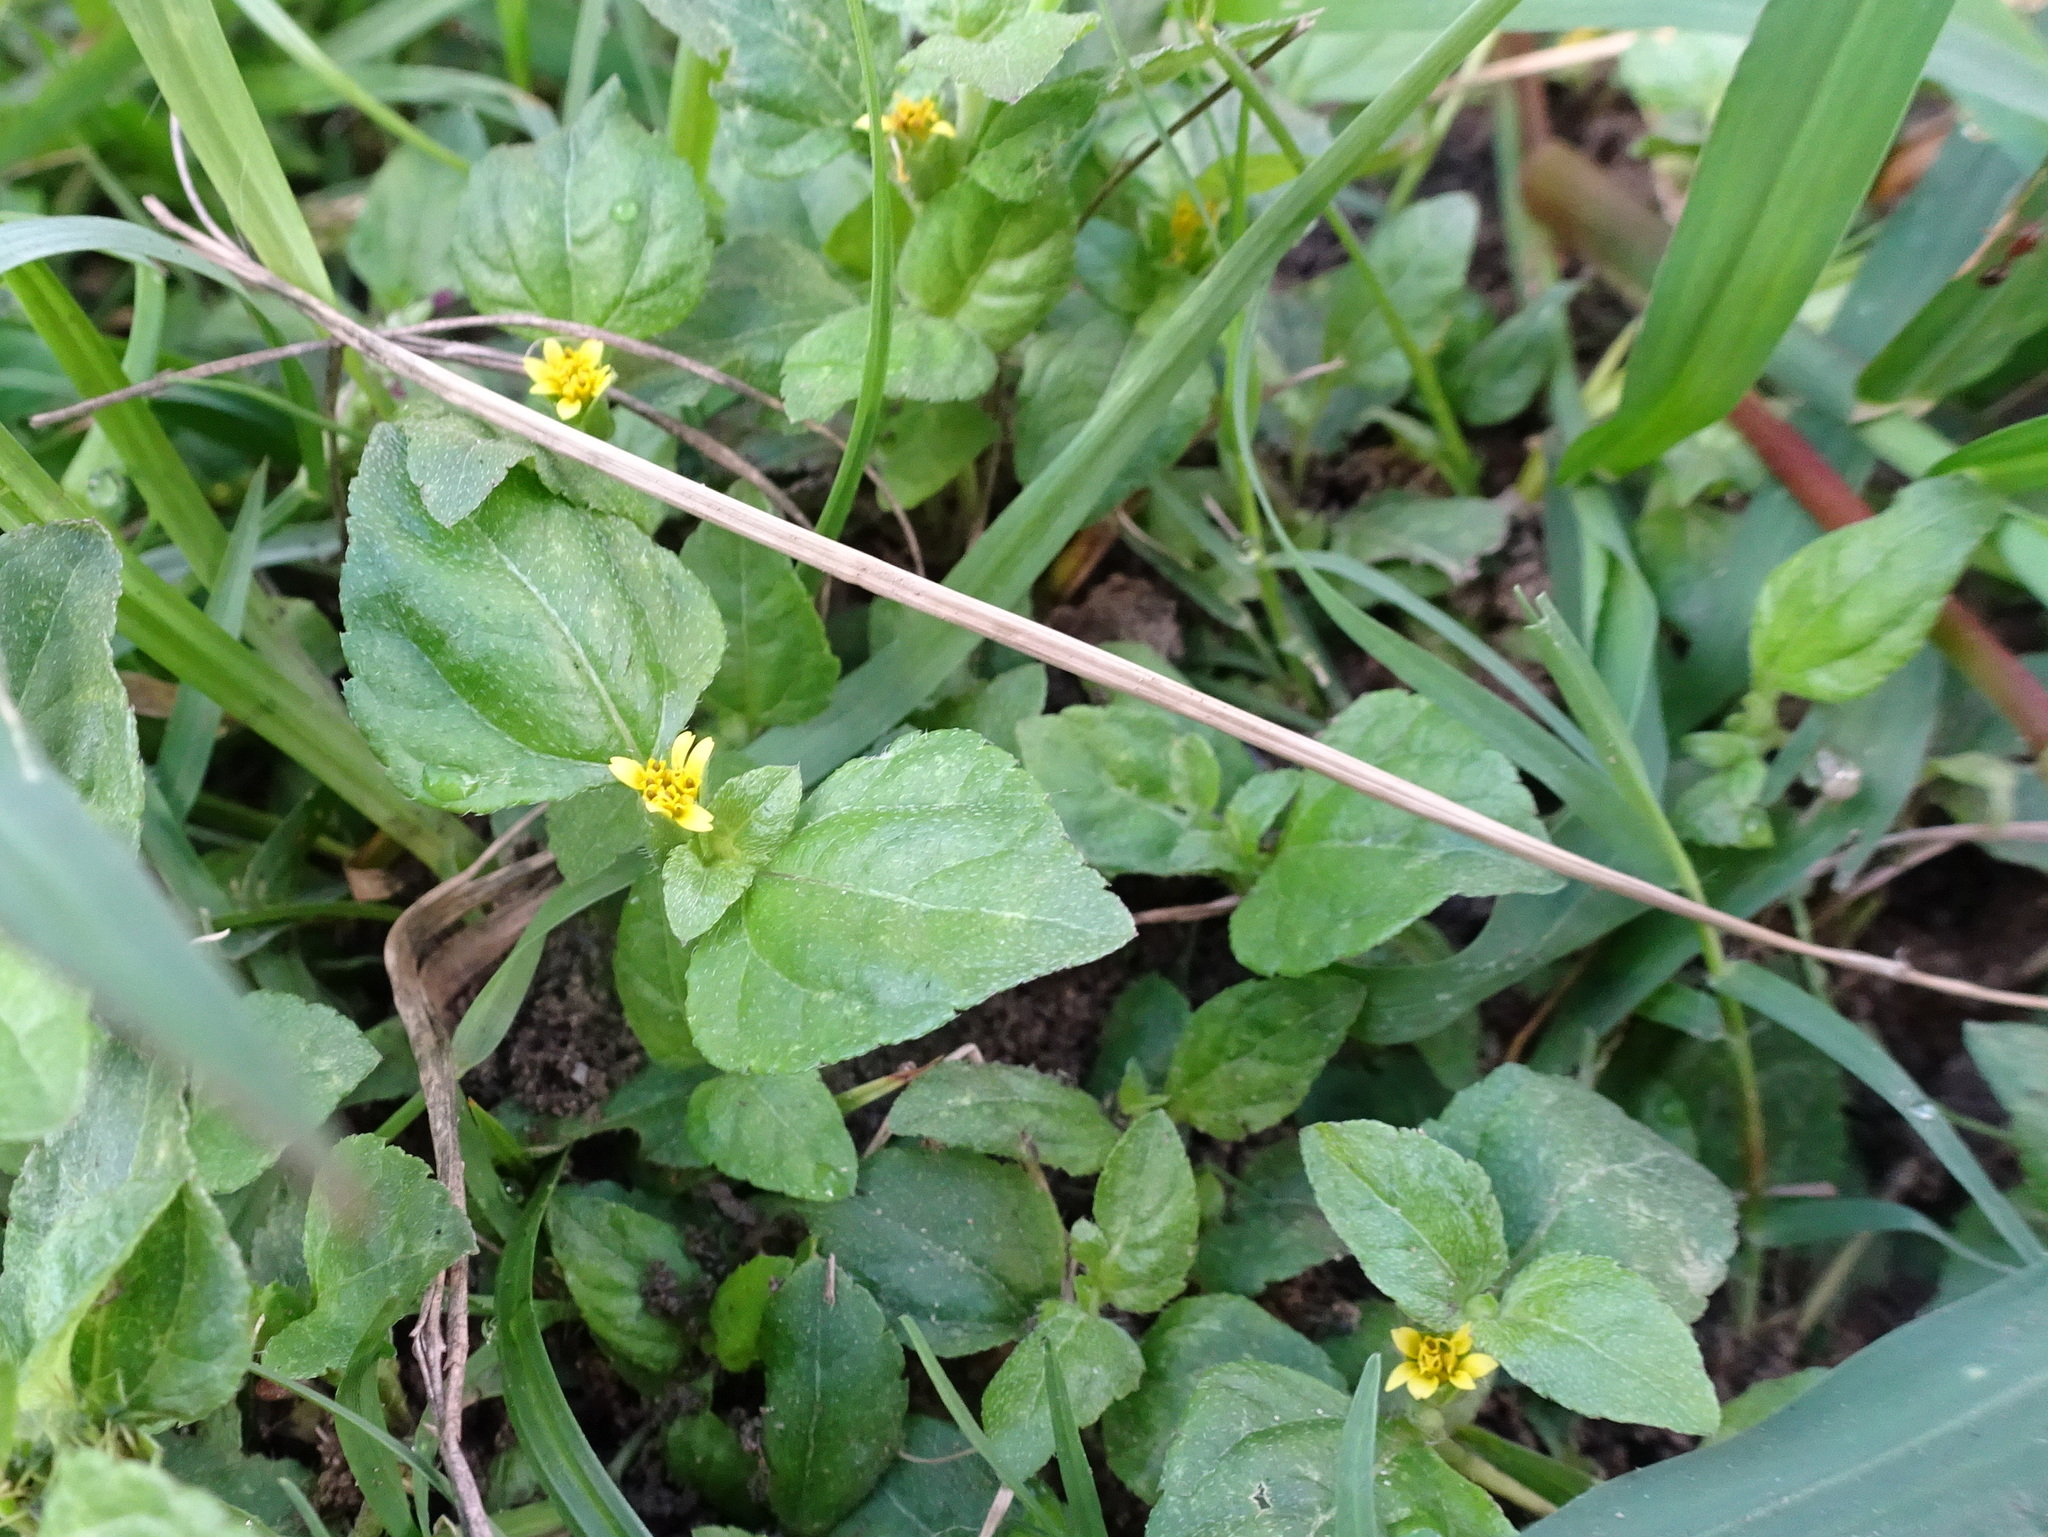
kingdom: Plantae
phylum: Tracheophyta
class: Magnoliopsida
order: Asterales
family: Asteraceae
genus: Calyptocarpus
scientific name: Calyptocarpus vialis
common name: Straggler daisy
